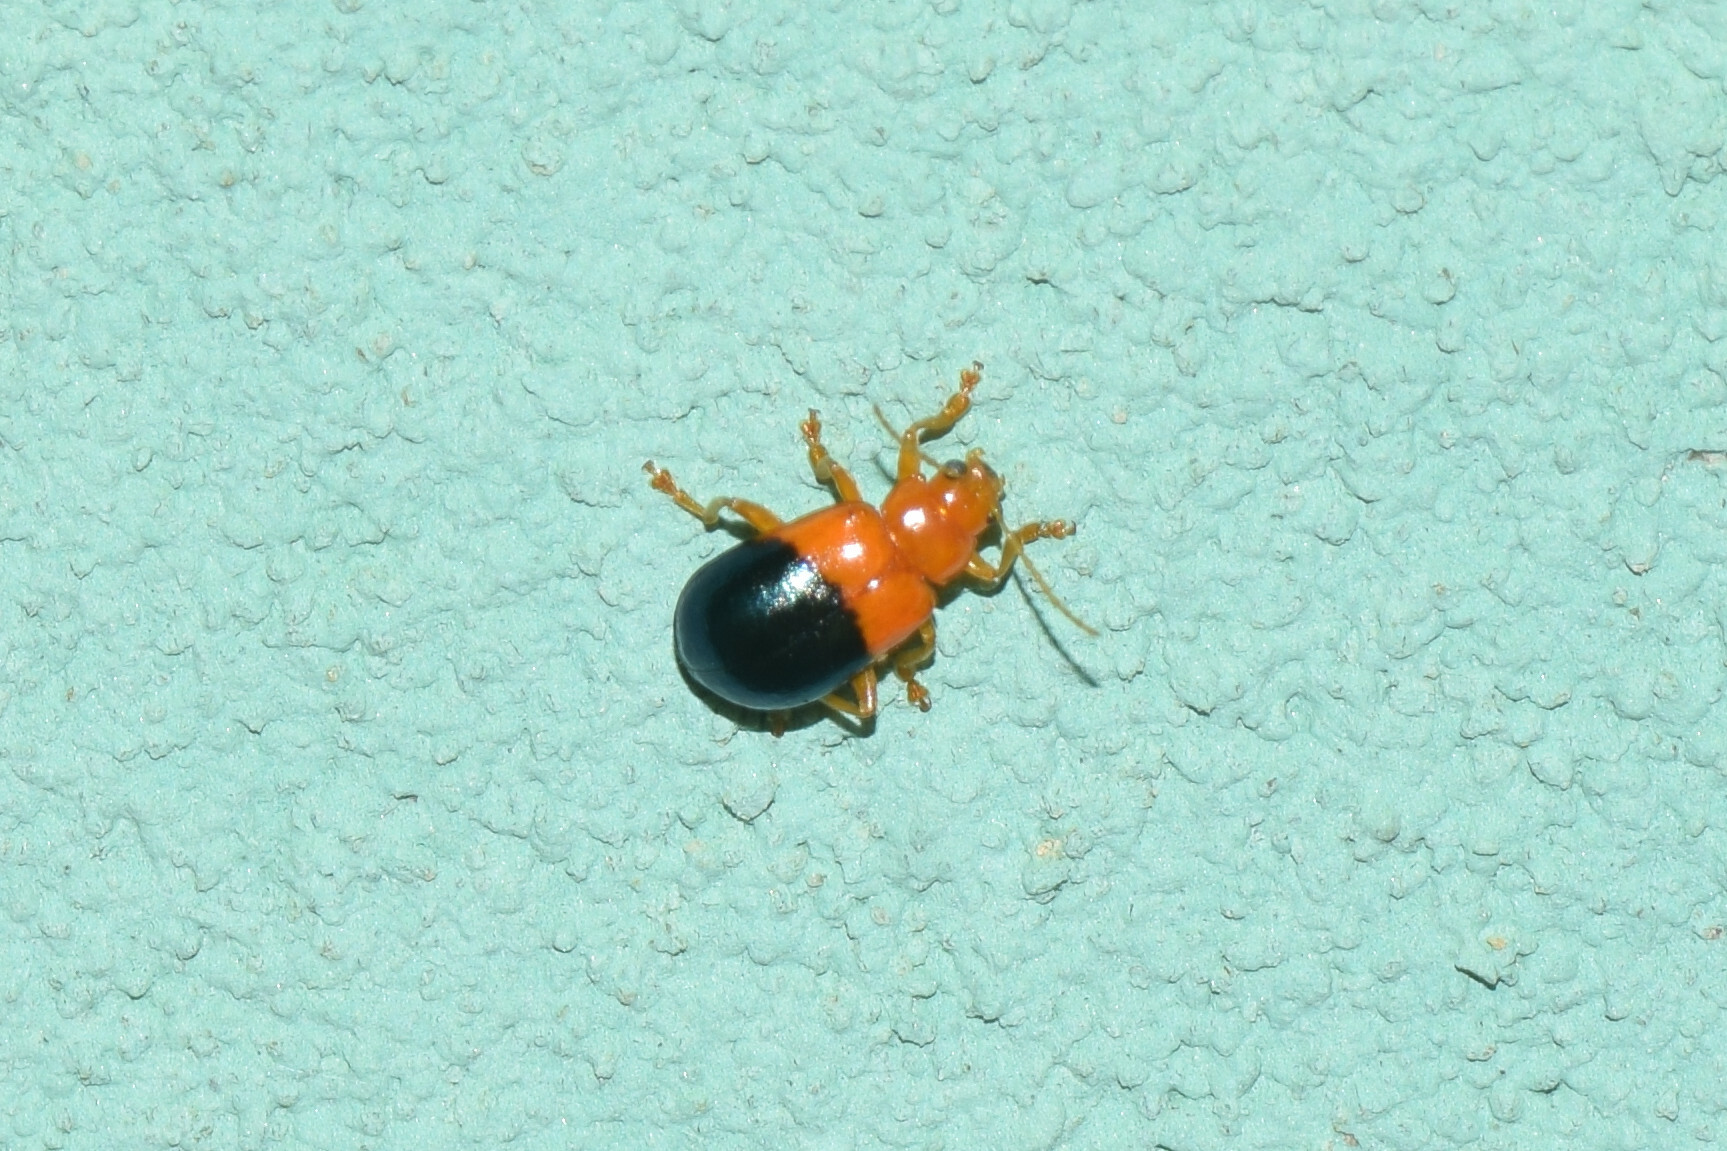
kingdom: Animalia
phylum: Arthropoda
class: Insecta
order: Coleoptera
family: Chrysomelidae
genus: Dercetina
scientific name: Dercetina
